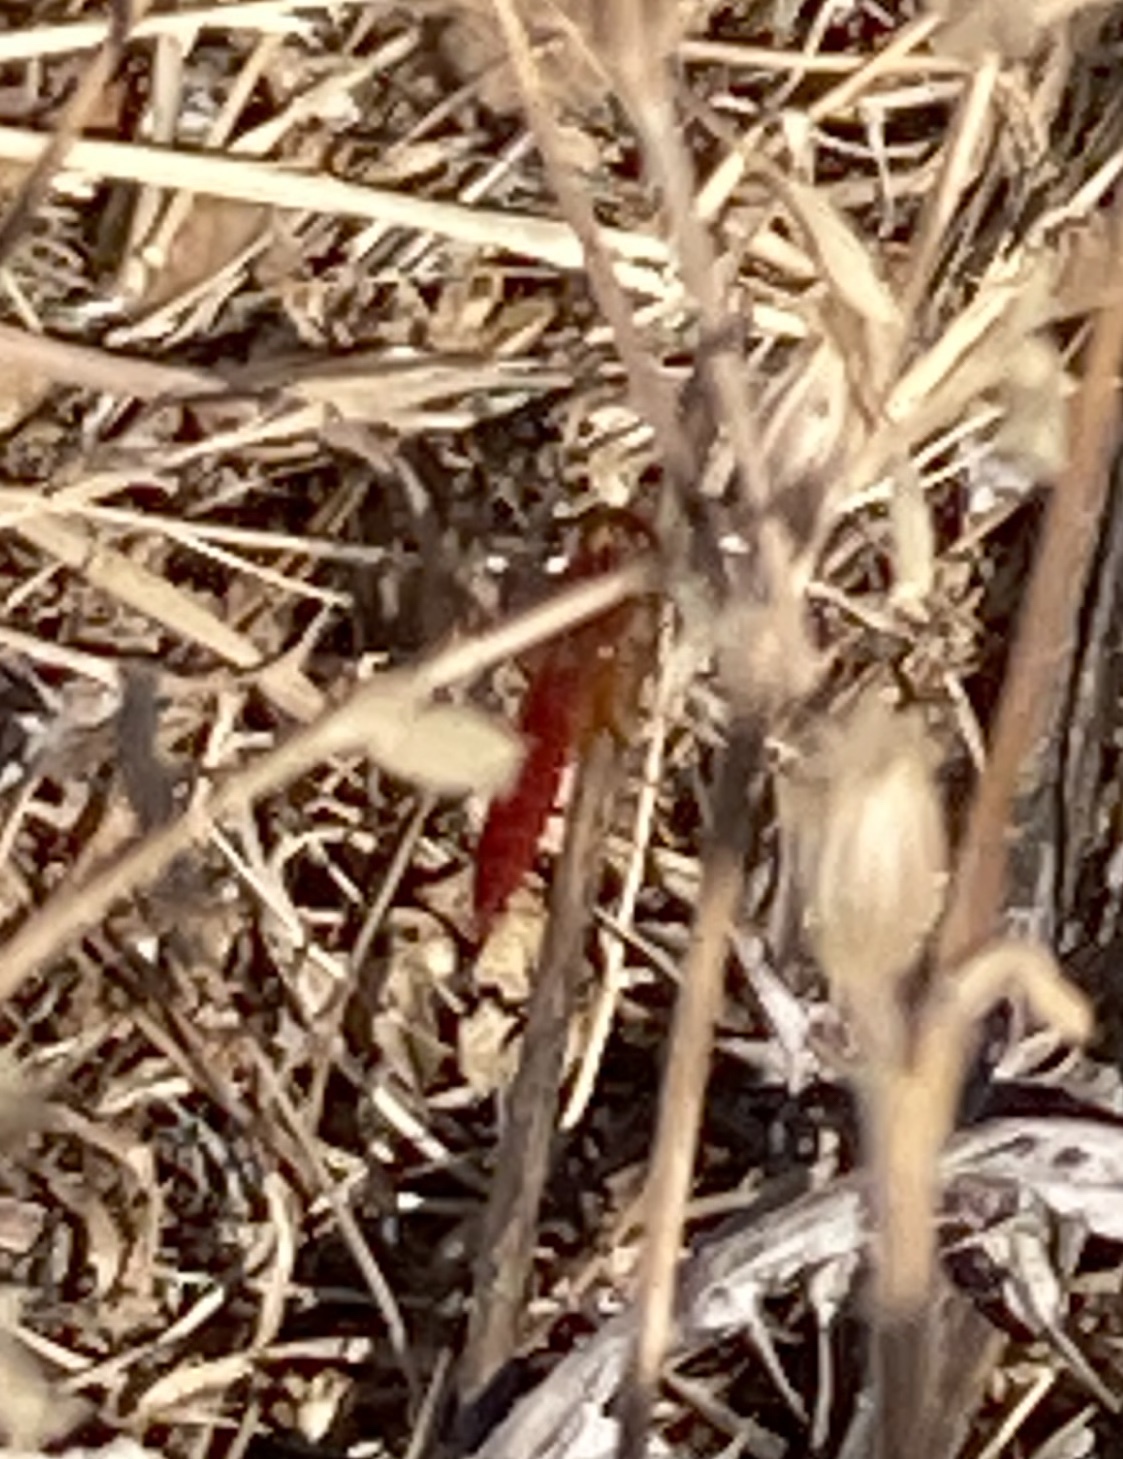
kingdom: Animalia
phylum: Arthropoda
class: Insecta
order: Odonata
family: Libellulidae
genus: Crocothemis
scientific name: Crocothemis erythraea
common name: Scarlet dragonfly
